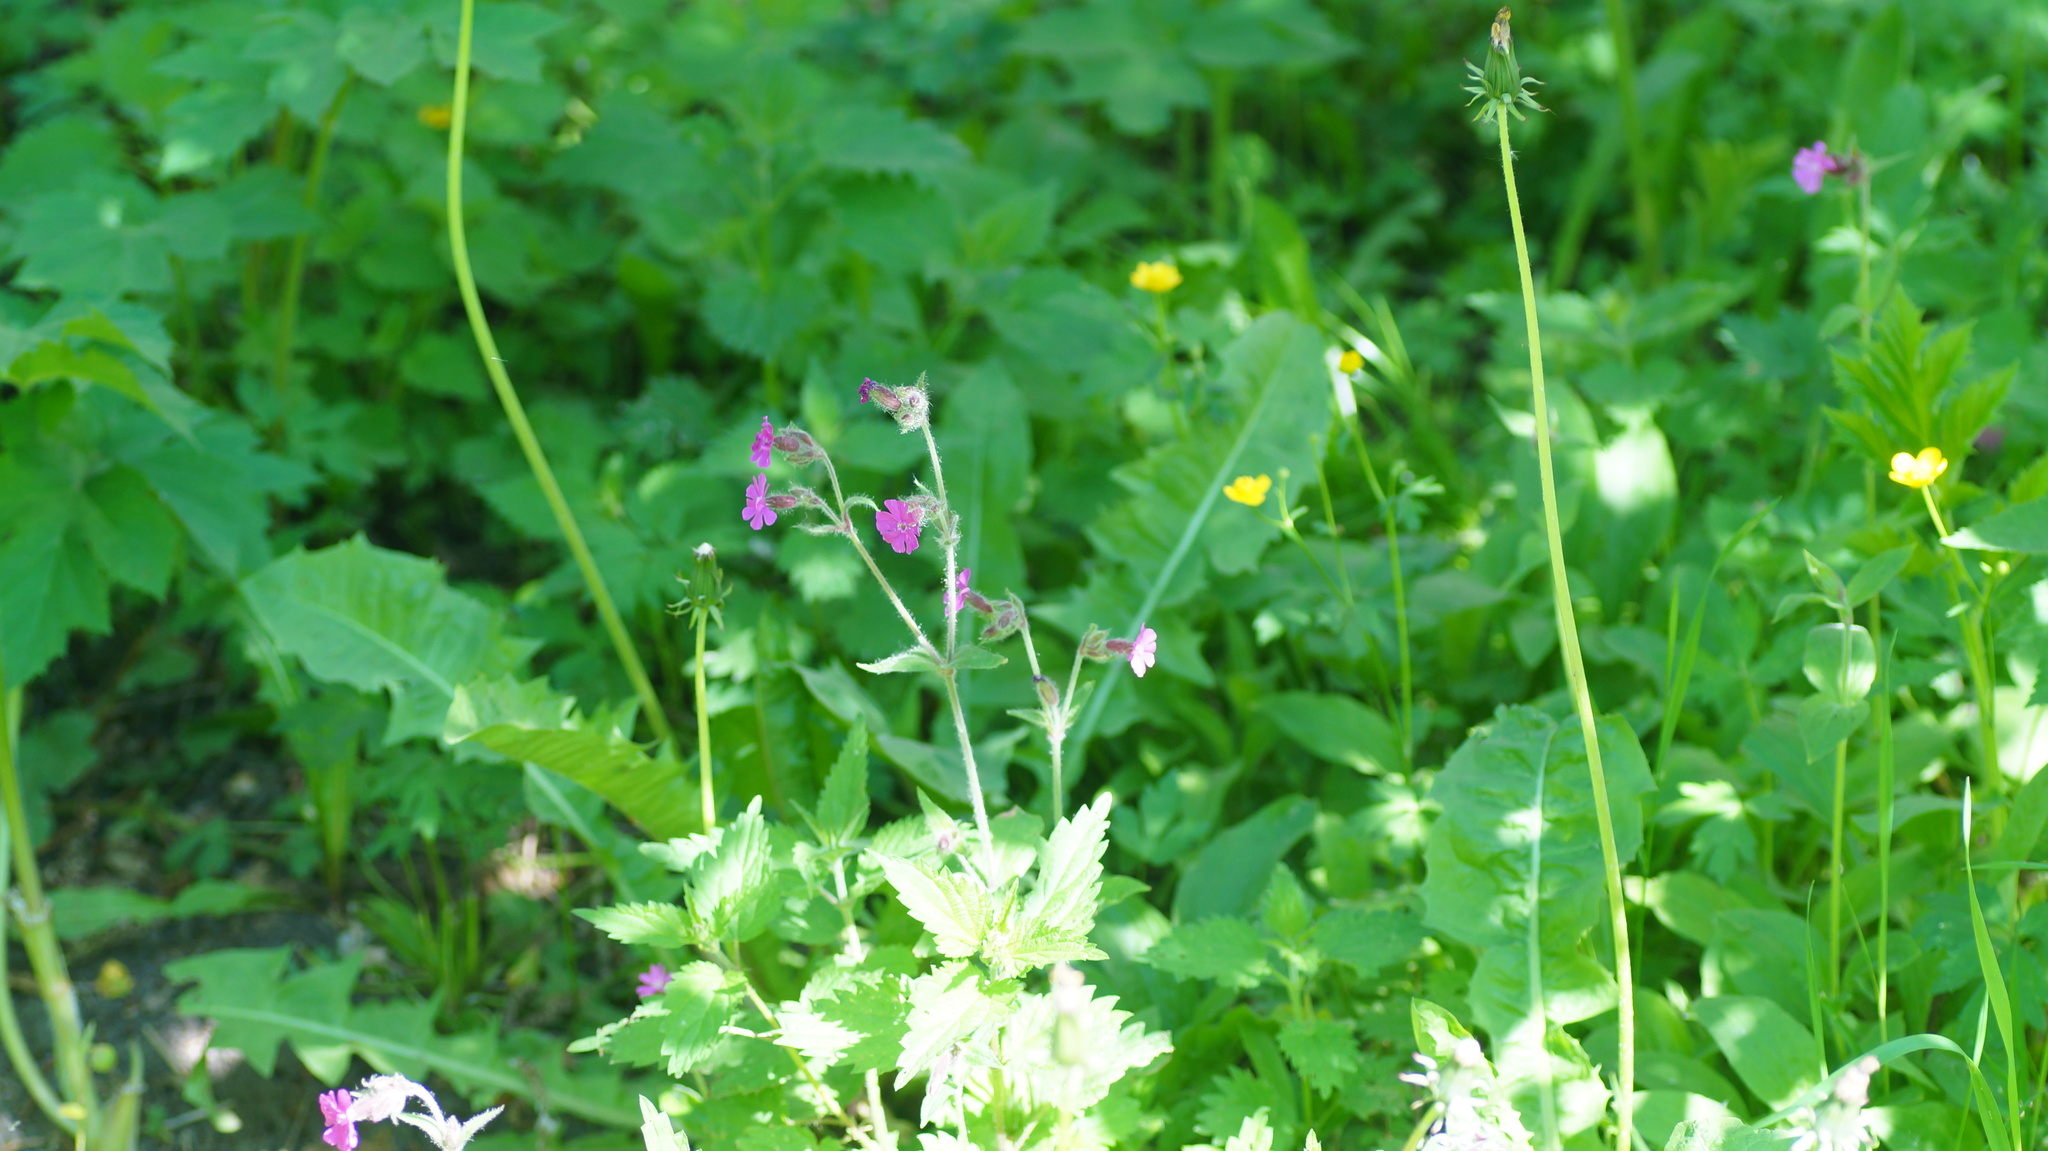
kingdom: Plantae
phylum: Tracheophyta
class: Magnoliopsida
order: Caryophyllales
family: Caryophyllaceae
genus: Silene
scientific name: Silene dioica
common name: Red campion
